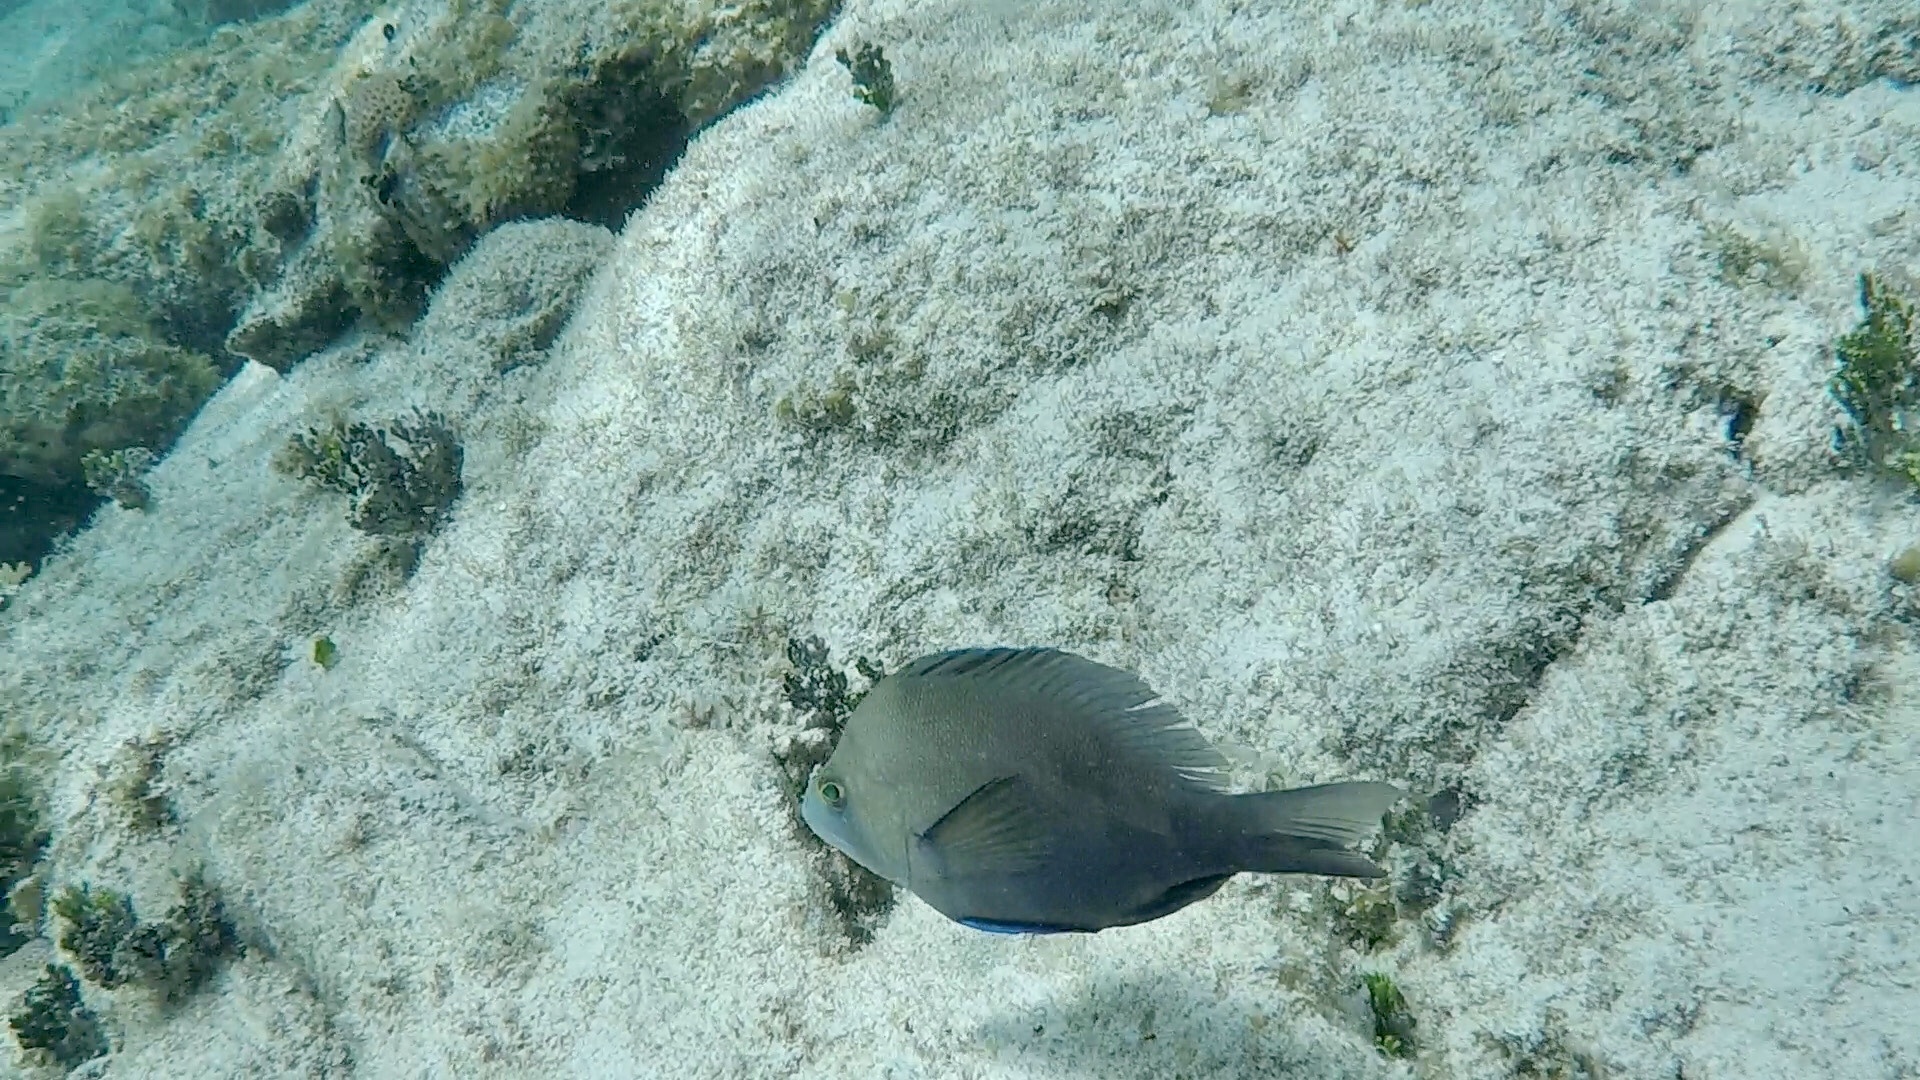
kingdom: Animalia
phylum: Chordata
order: Perciformes
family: Serranidae
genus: Hypoplectrus
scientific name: Hypoplectrus nigricans
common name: Black hamlet
